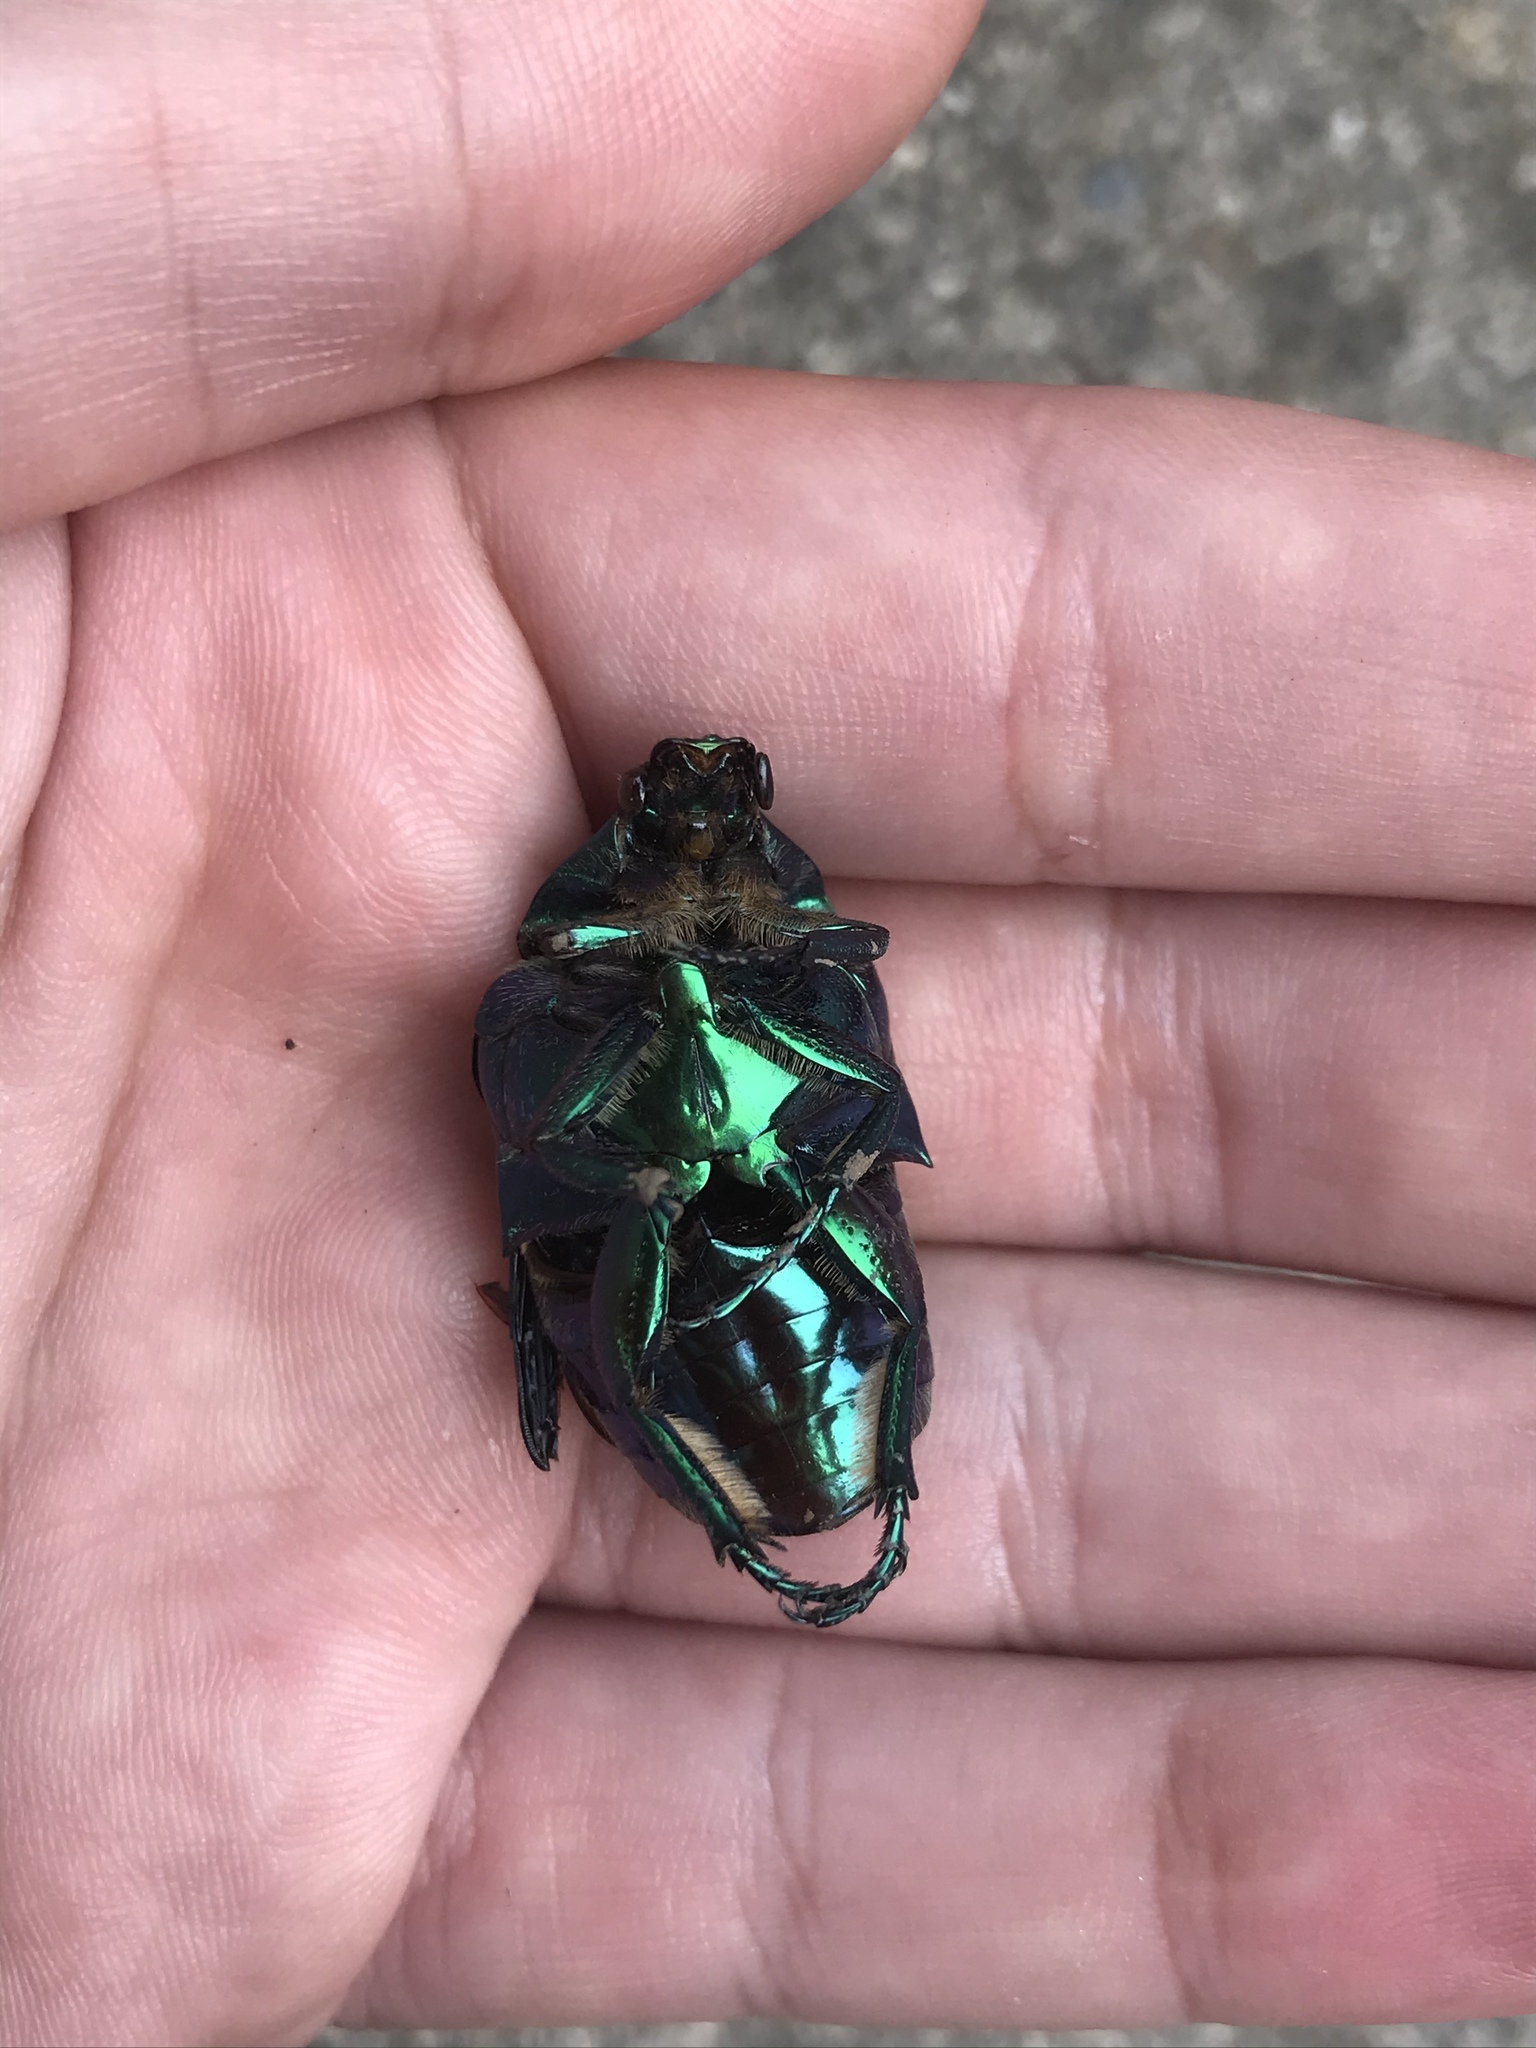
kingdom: Animalia
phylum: Arthropoda
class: Insecta
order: Coleoptera
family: Scarabaeidae
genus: Cotinis
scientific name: Cotinis mutabilis
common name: Figeater beetle
